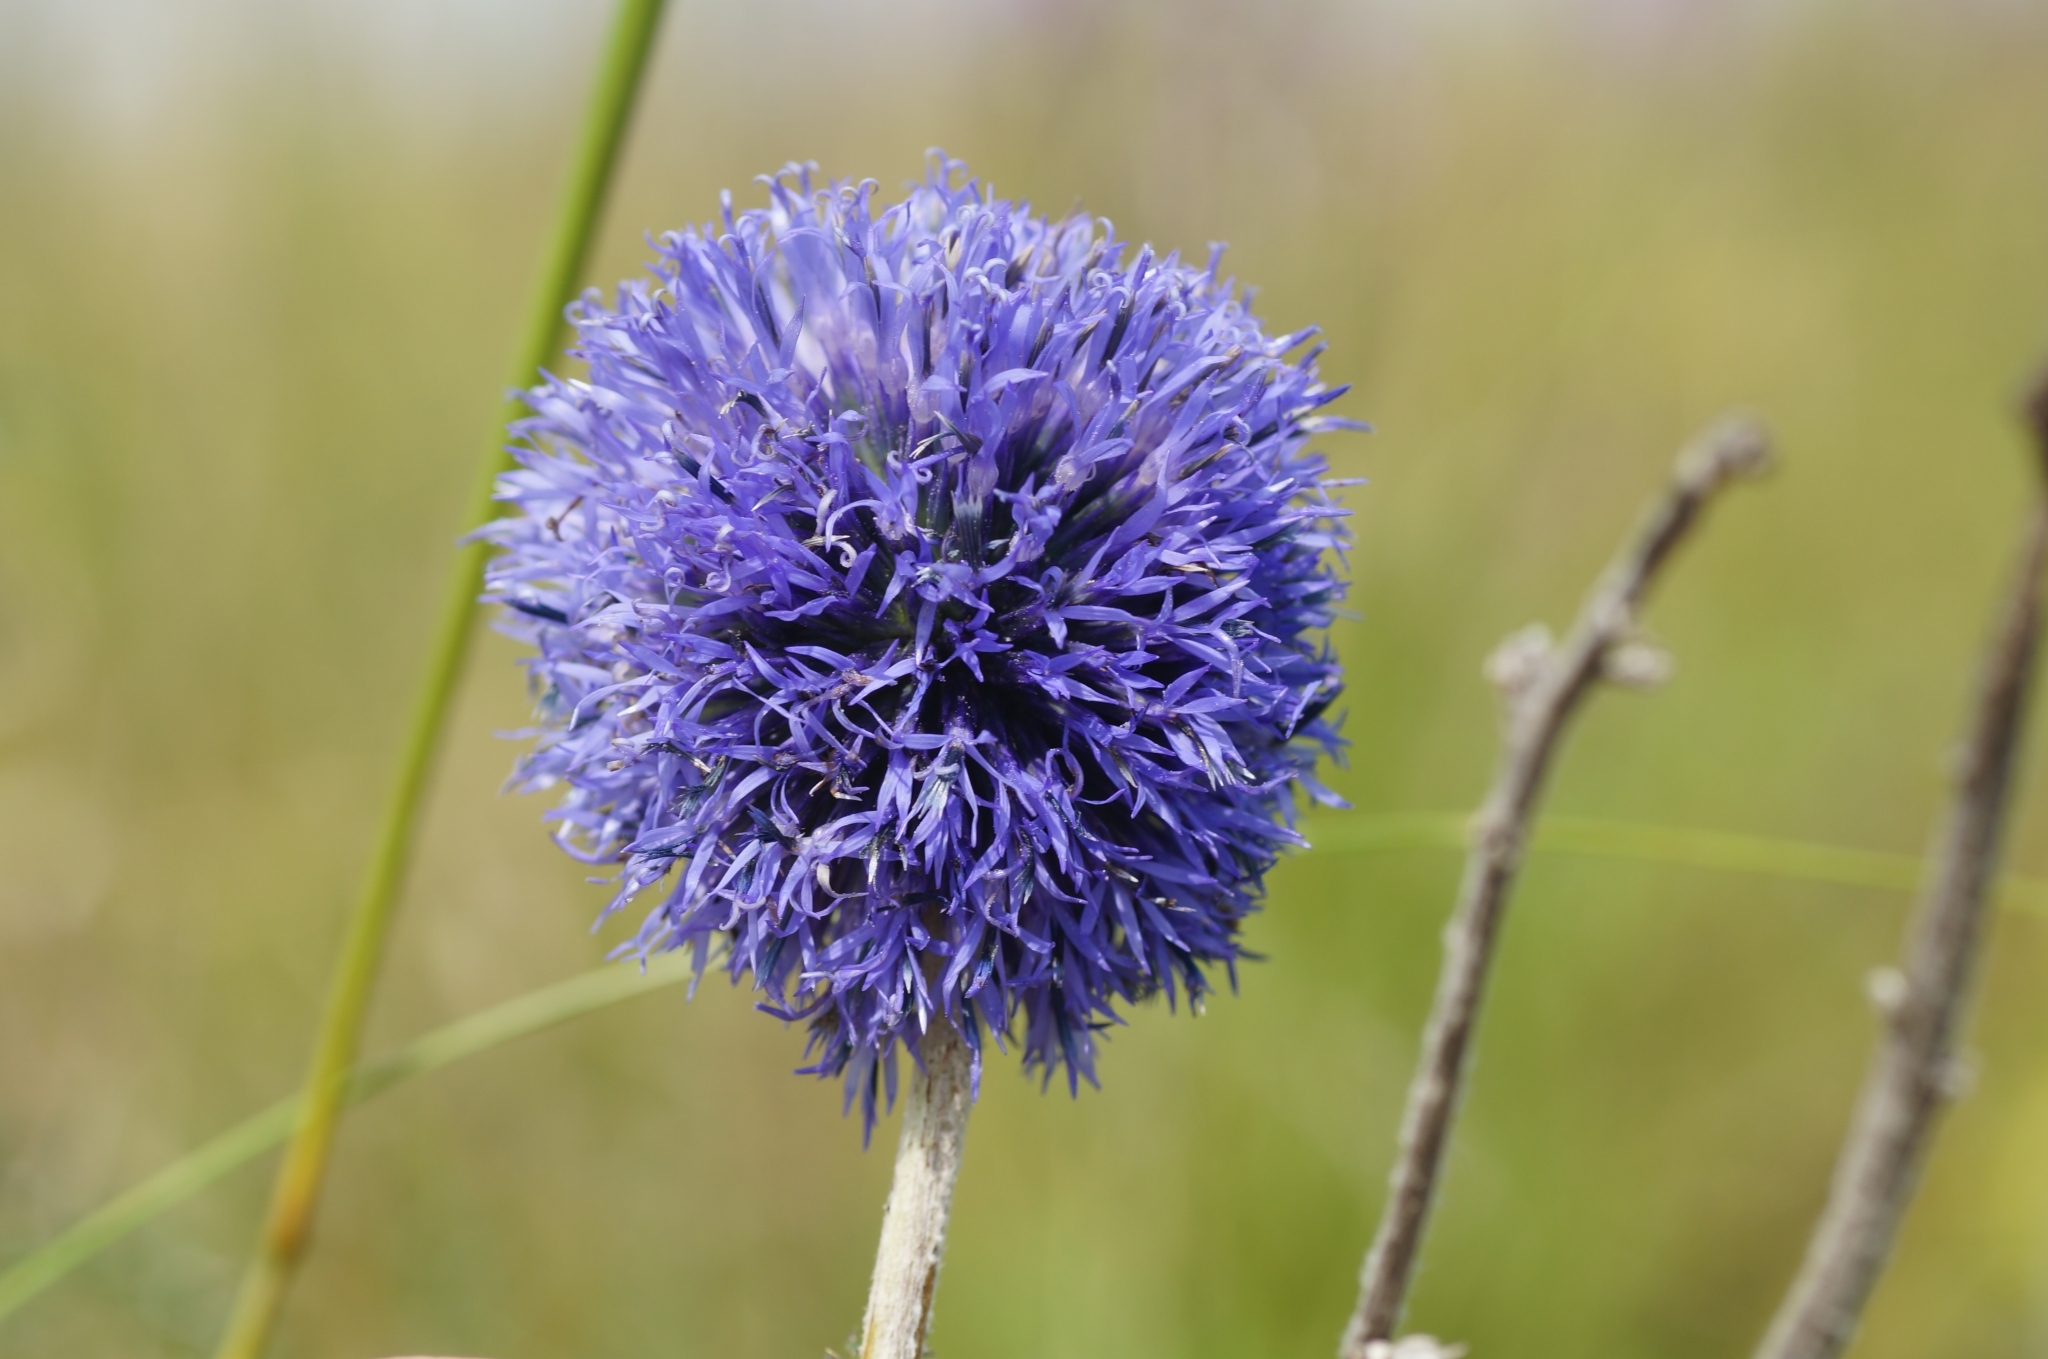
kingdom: Plantae
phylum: Tracheophyta
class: Magnoliopsida
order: Asterales
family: Asteraceae
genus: Echinops
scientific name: Echinops ritro
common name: Globe thistle
